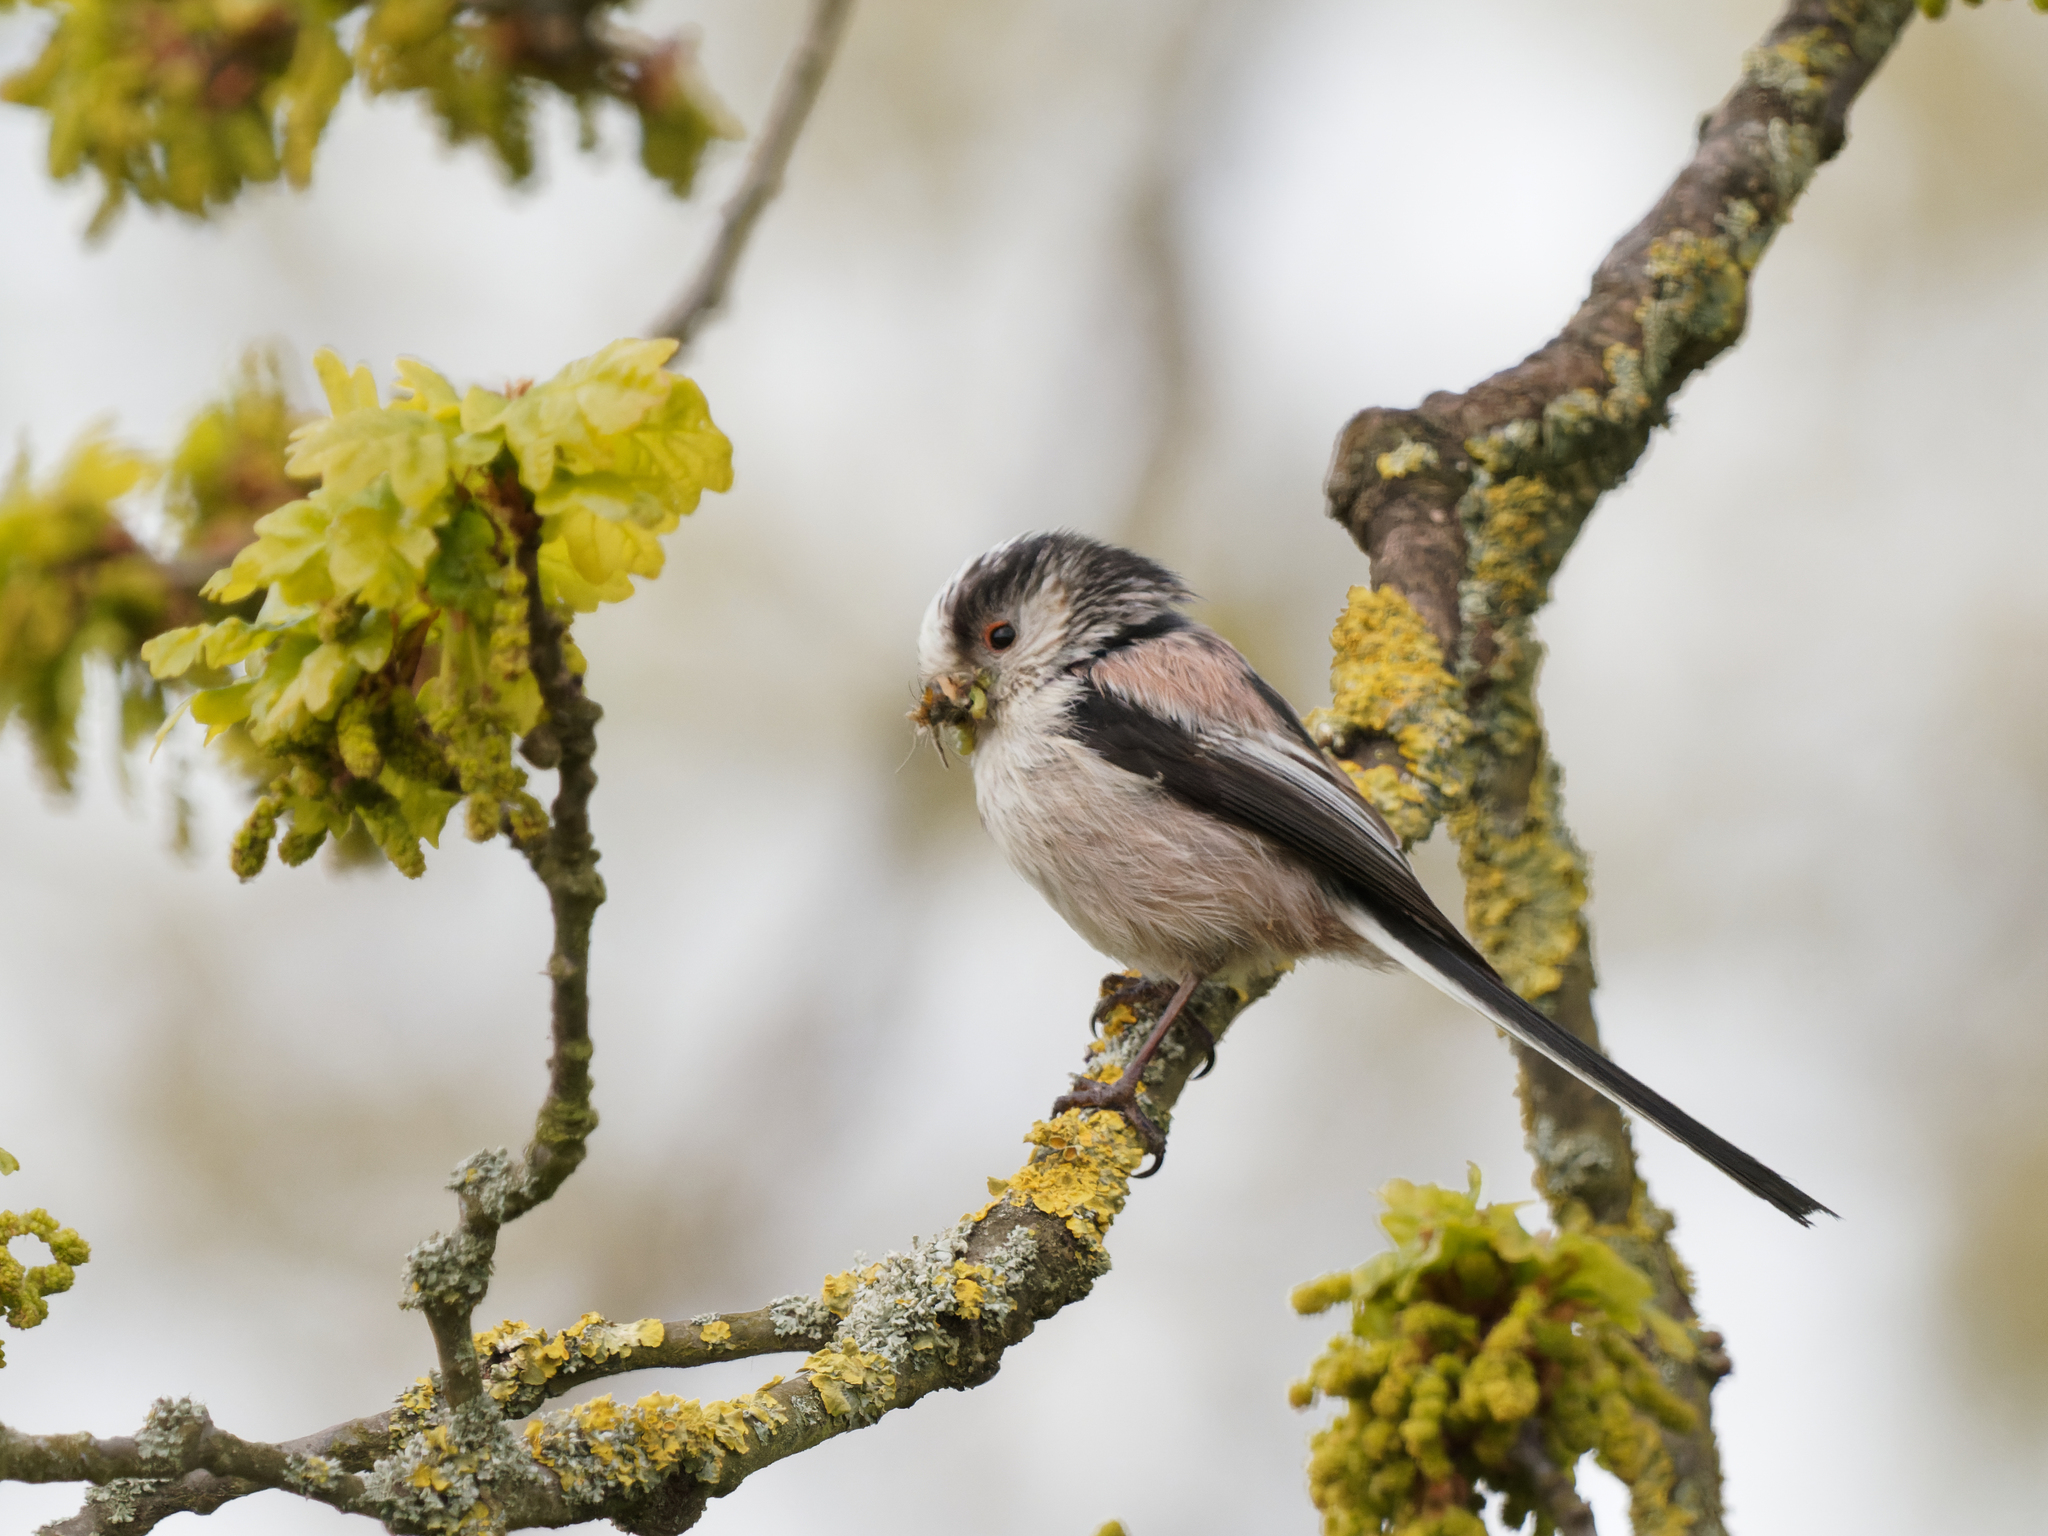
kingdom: Animalia
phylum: Chordata
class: Aves
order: Passeriformes
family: Aegithalidae
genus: Aegithalos
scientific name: Aegithalos caudatus
